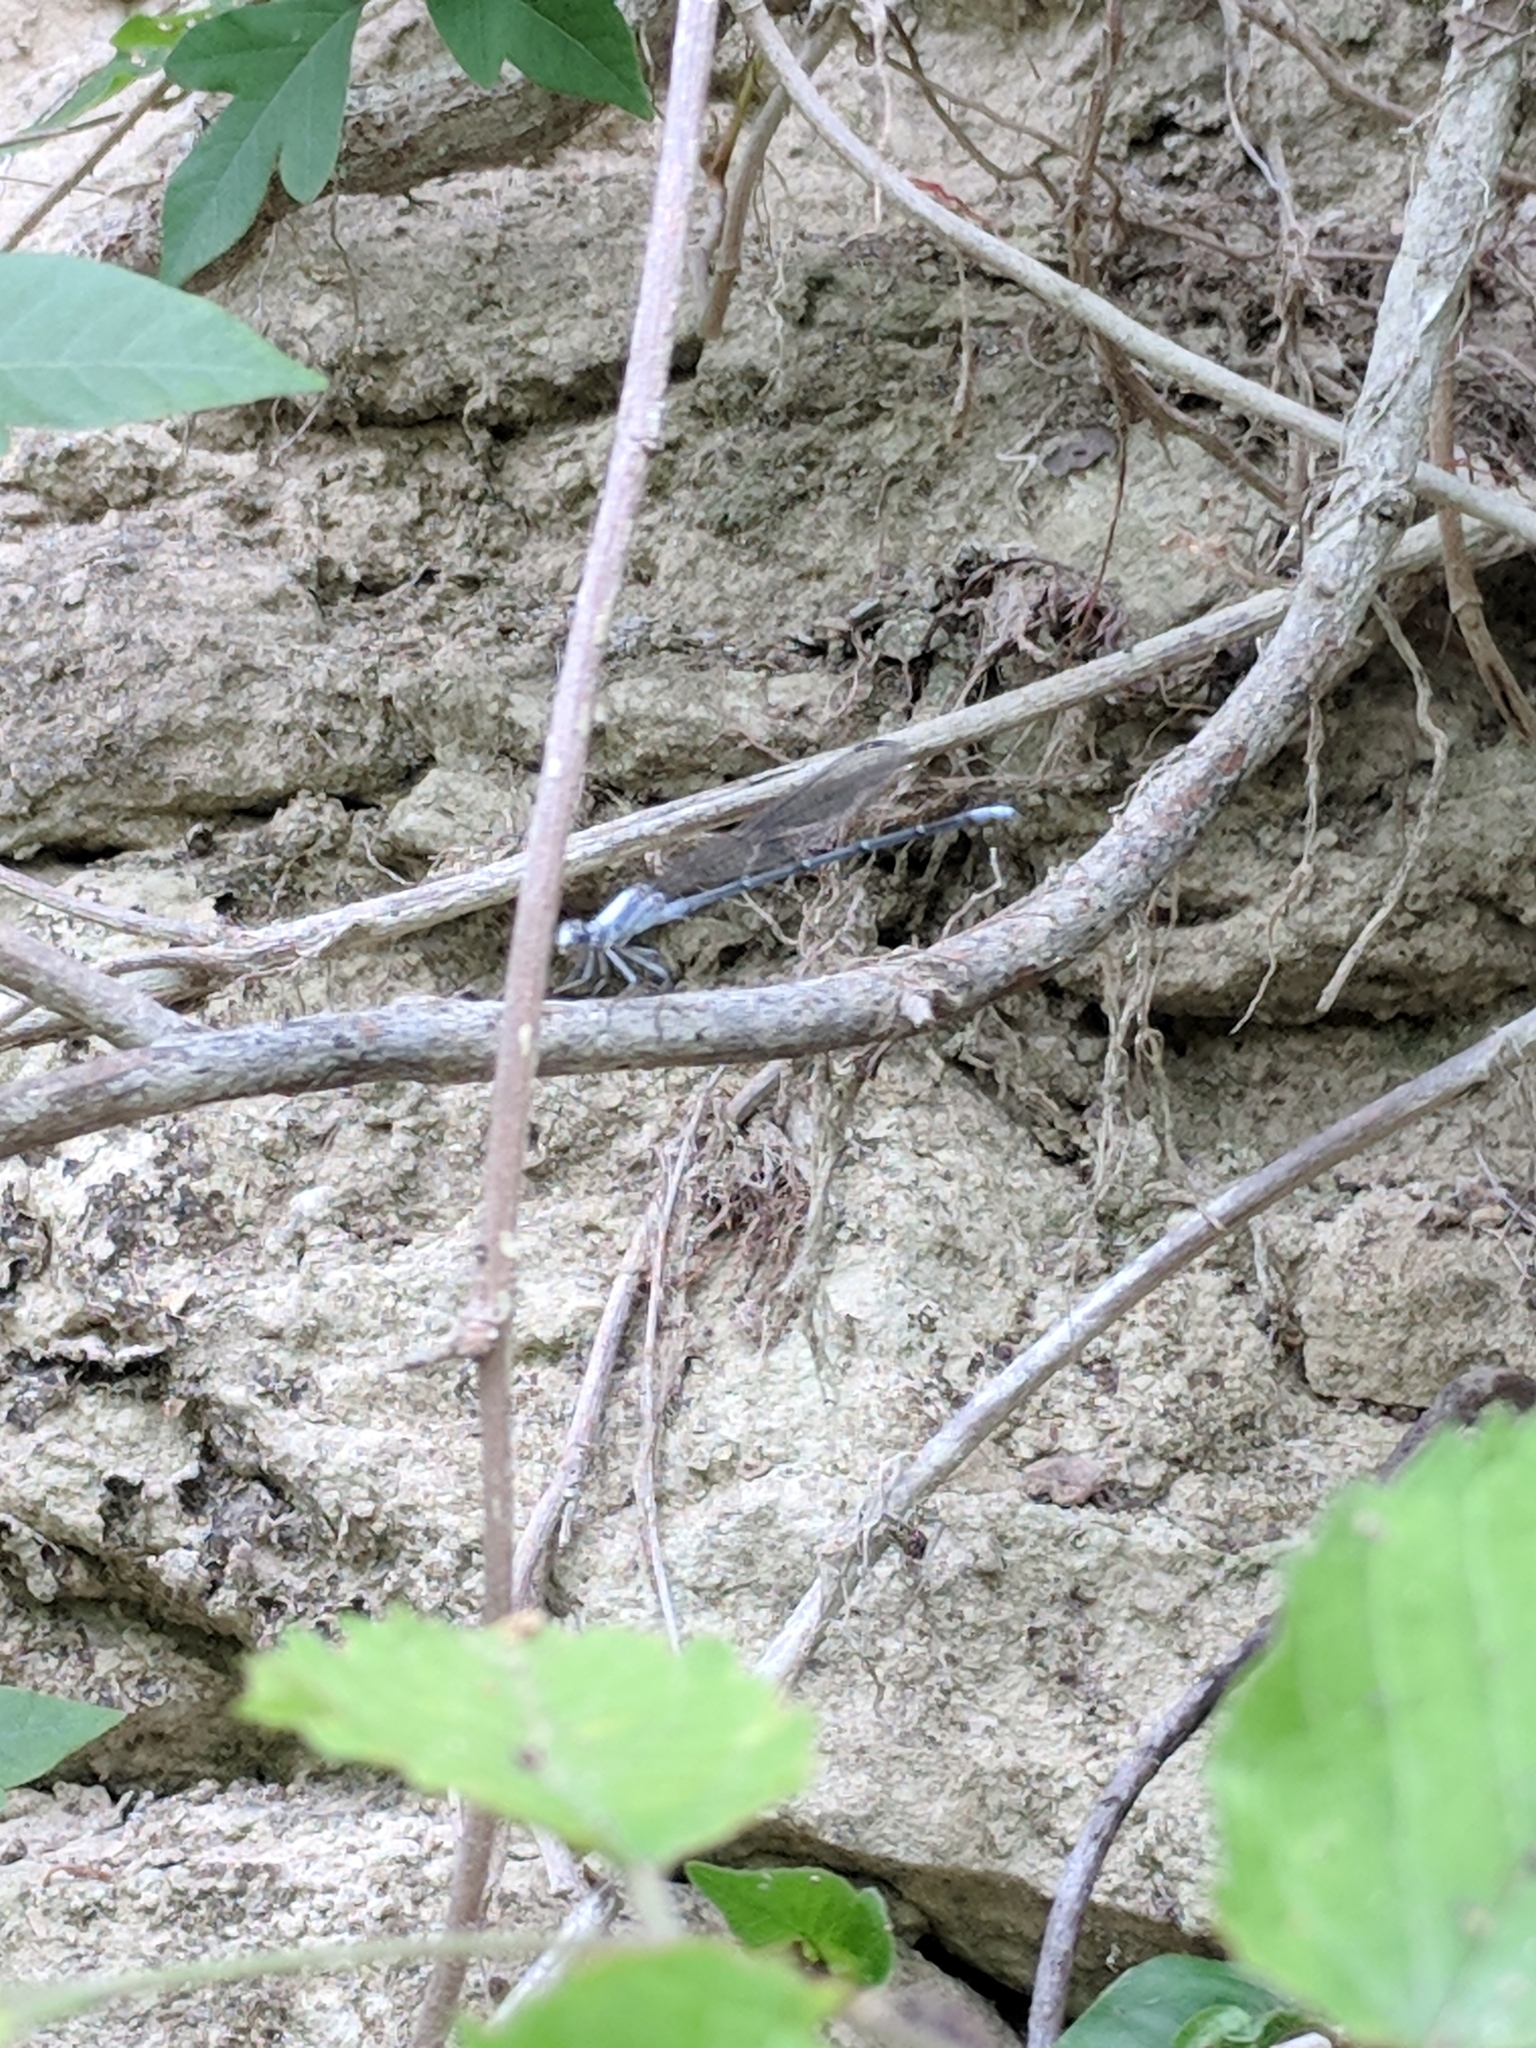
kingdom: Animalia
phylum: Arthropoda
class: Insecta
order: Odonata
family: Coenagrionidae
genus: Argia
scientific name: Argia moesta
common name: Powdered dancer
